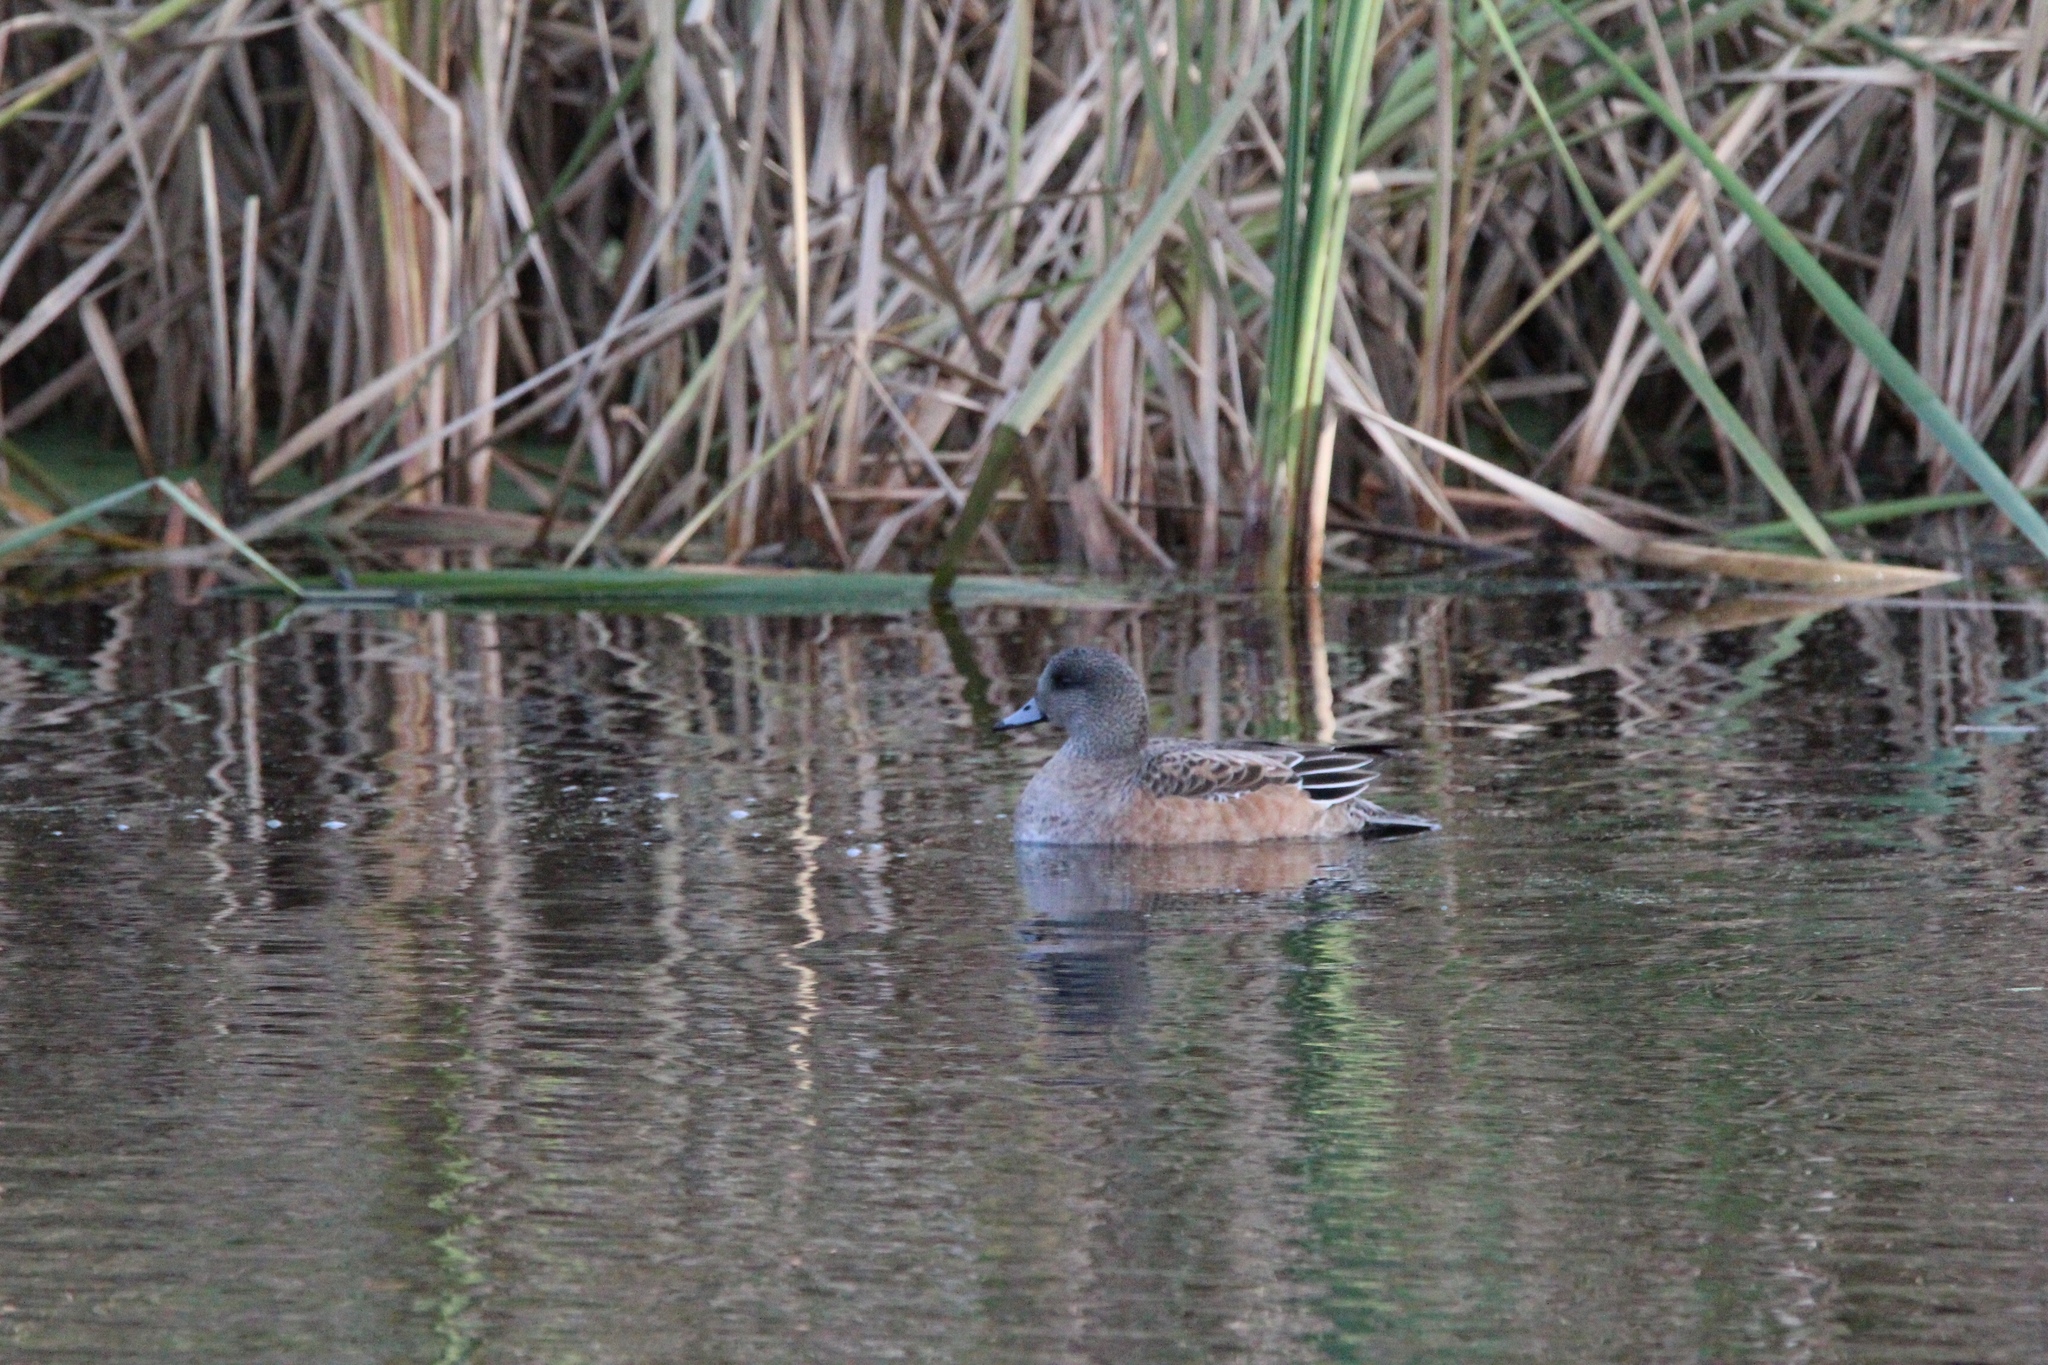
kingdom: Animalia
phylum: Chordata
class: Aves
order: Anseriformes
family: Anatidae
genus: Mareca
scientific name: Mareca americana
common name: American wigeon
